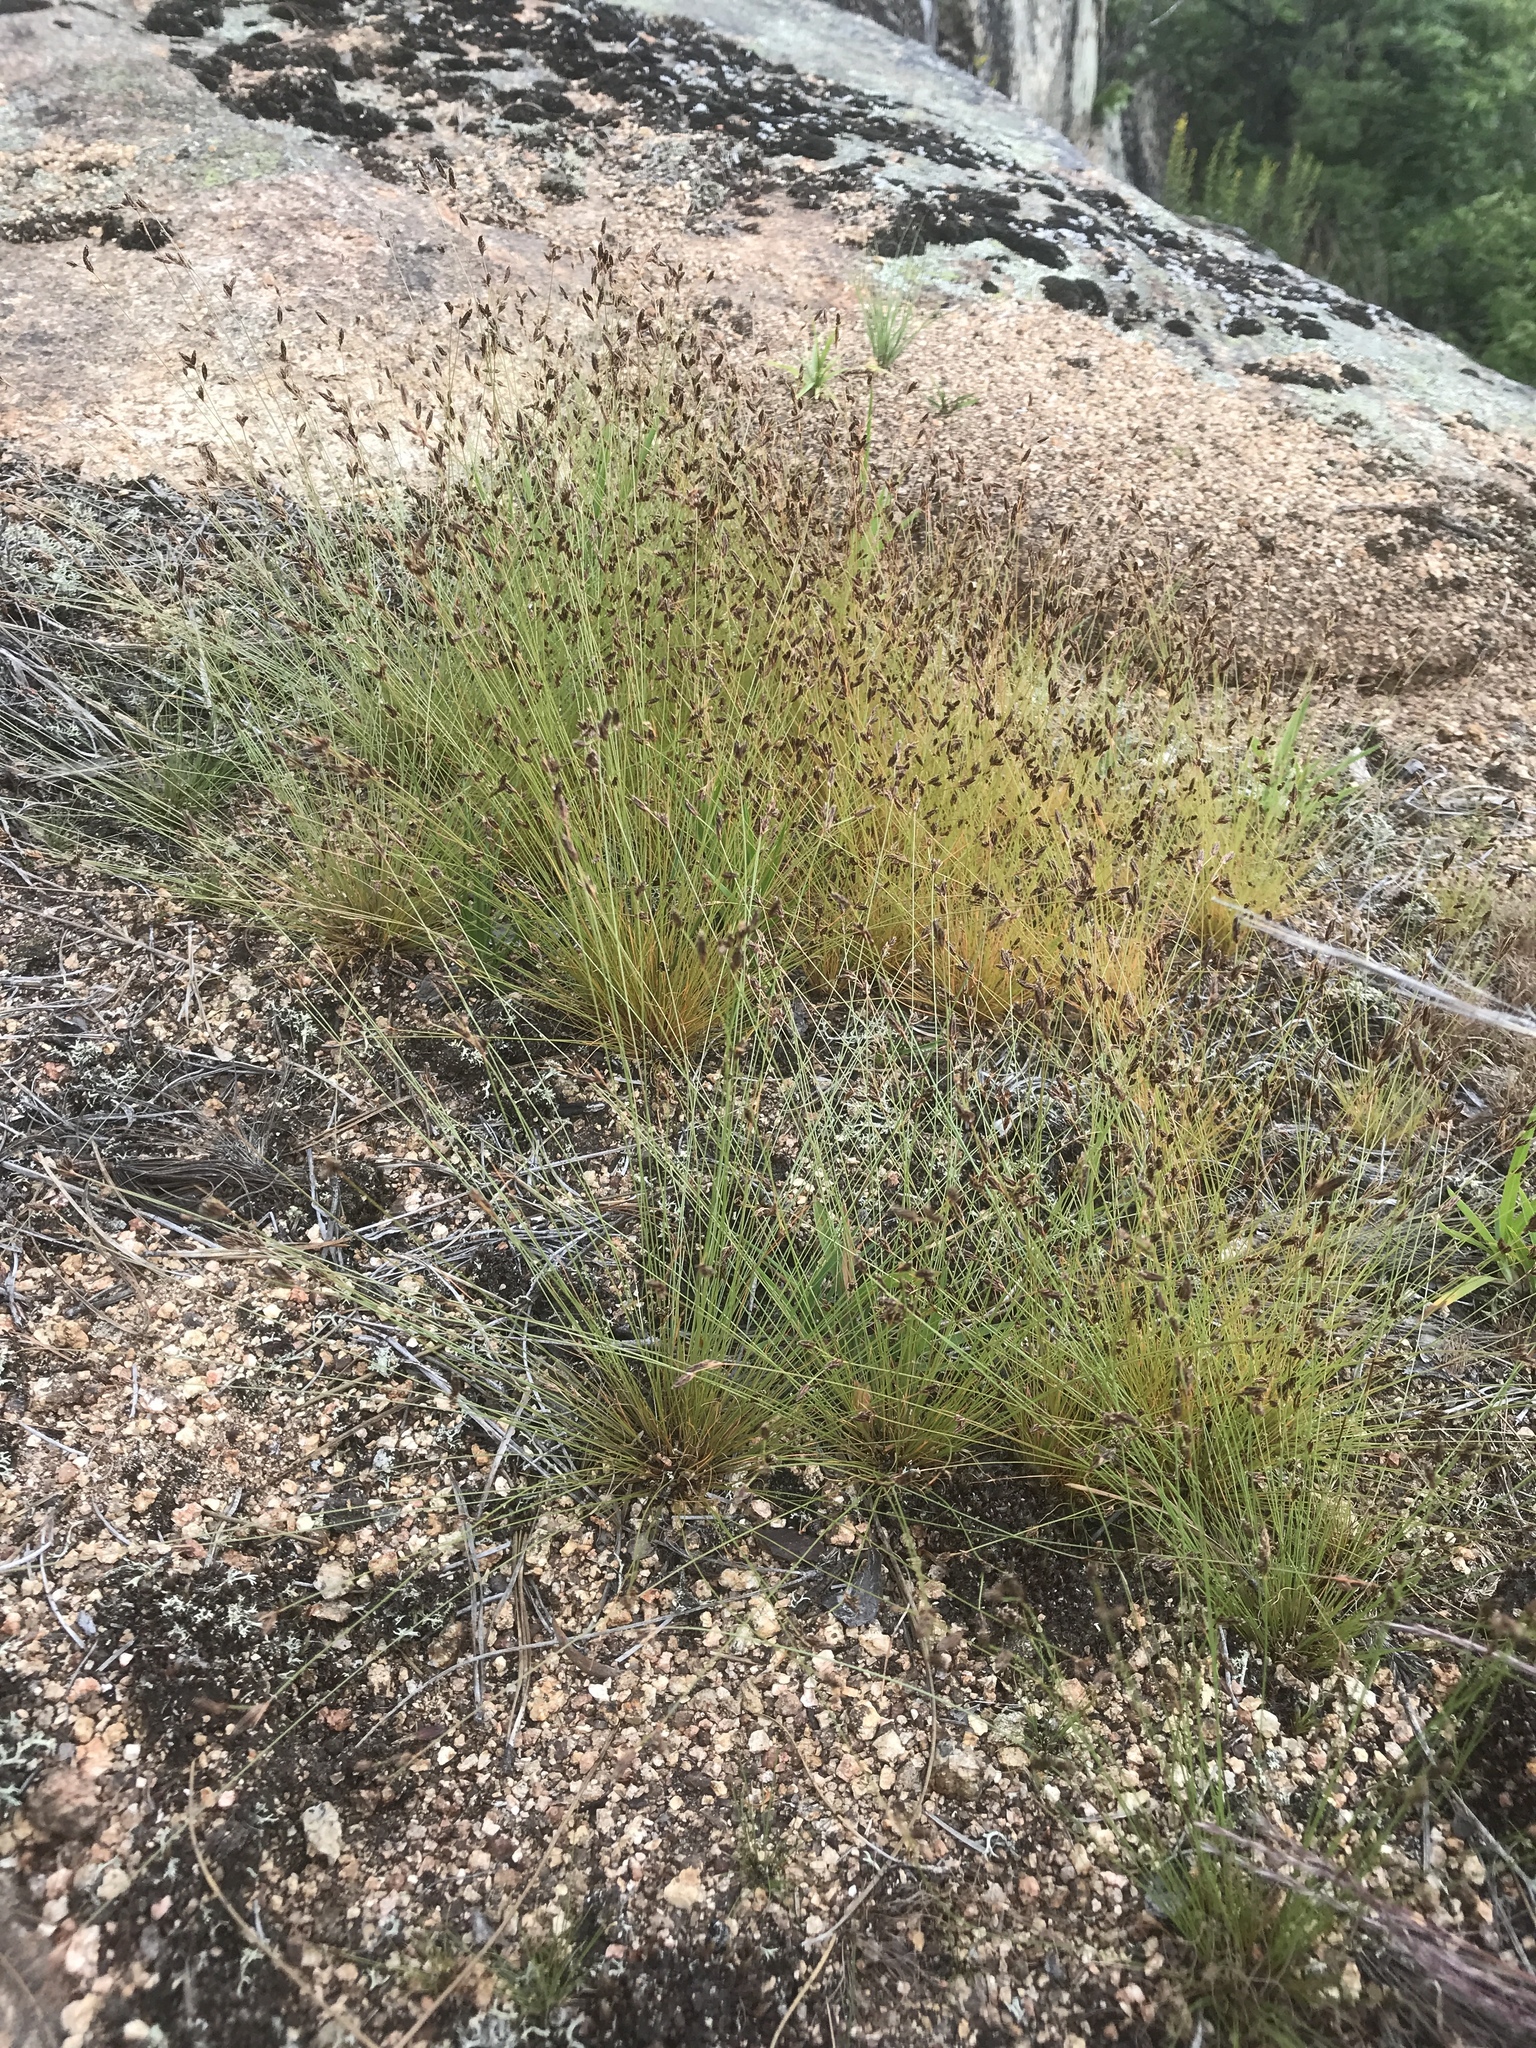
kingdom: Plantae
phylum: Tracheophyta
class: Liliopsida
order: Poales
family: Cyperaceae
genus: Bulbostylis
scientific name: Bulbostylis capillaris
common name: Densetuft hairsedge
